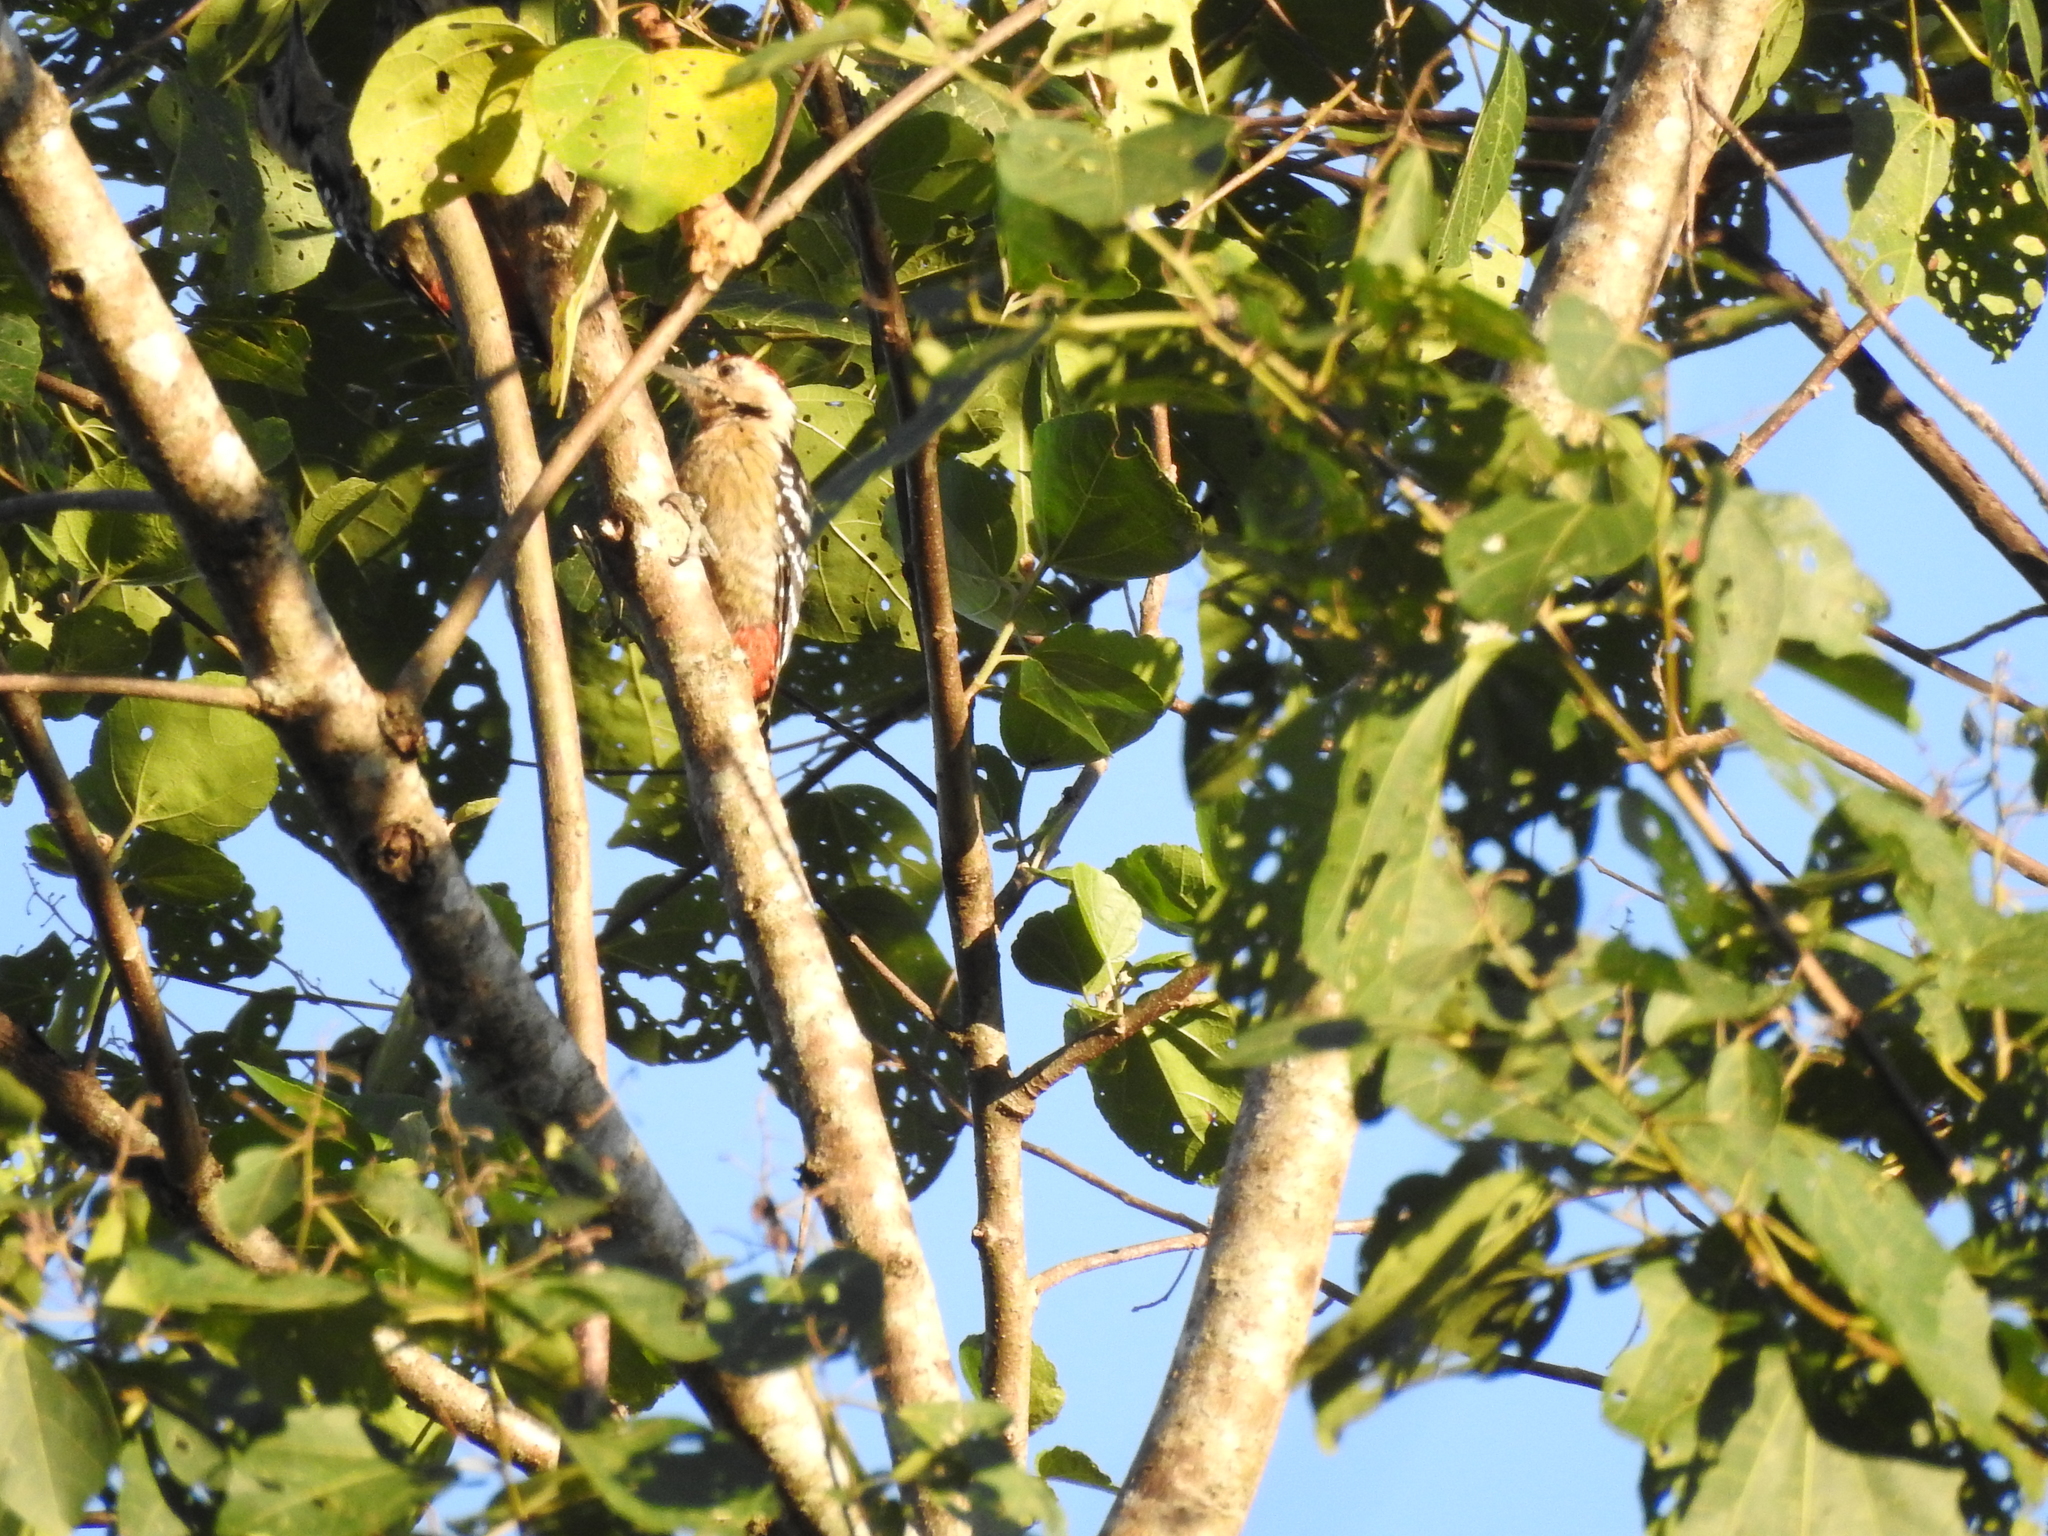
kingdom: Animalia
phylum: Chordata
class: Aves
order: Piciformes
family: Picidae
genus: Dendrocopos
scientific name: Dendrocopos macei
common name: Fulvous-breasted woodpecker
